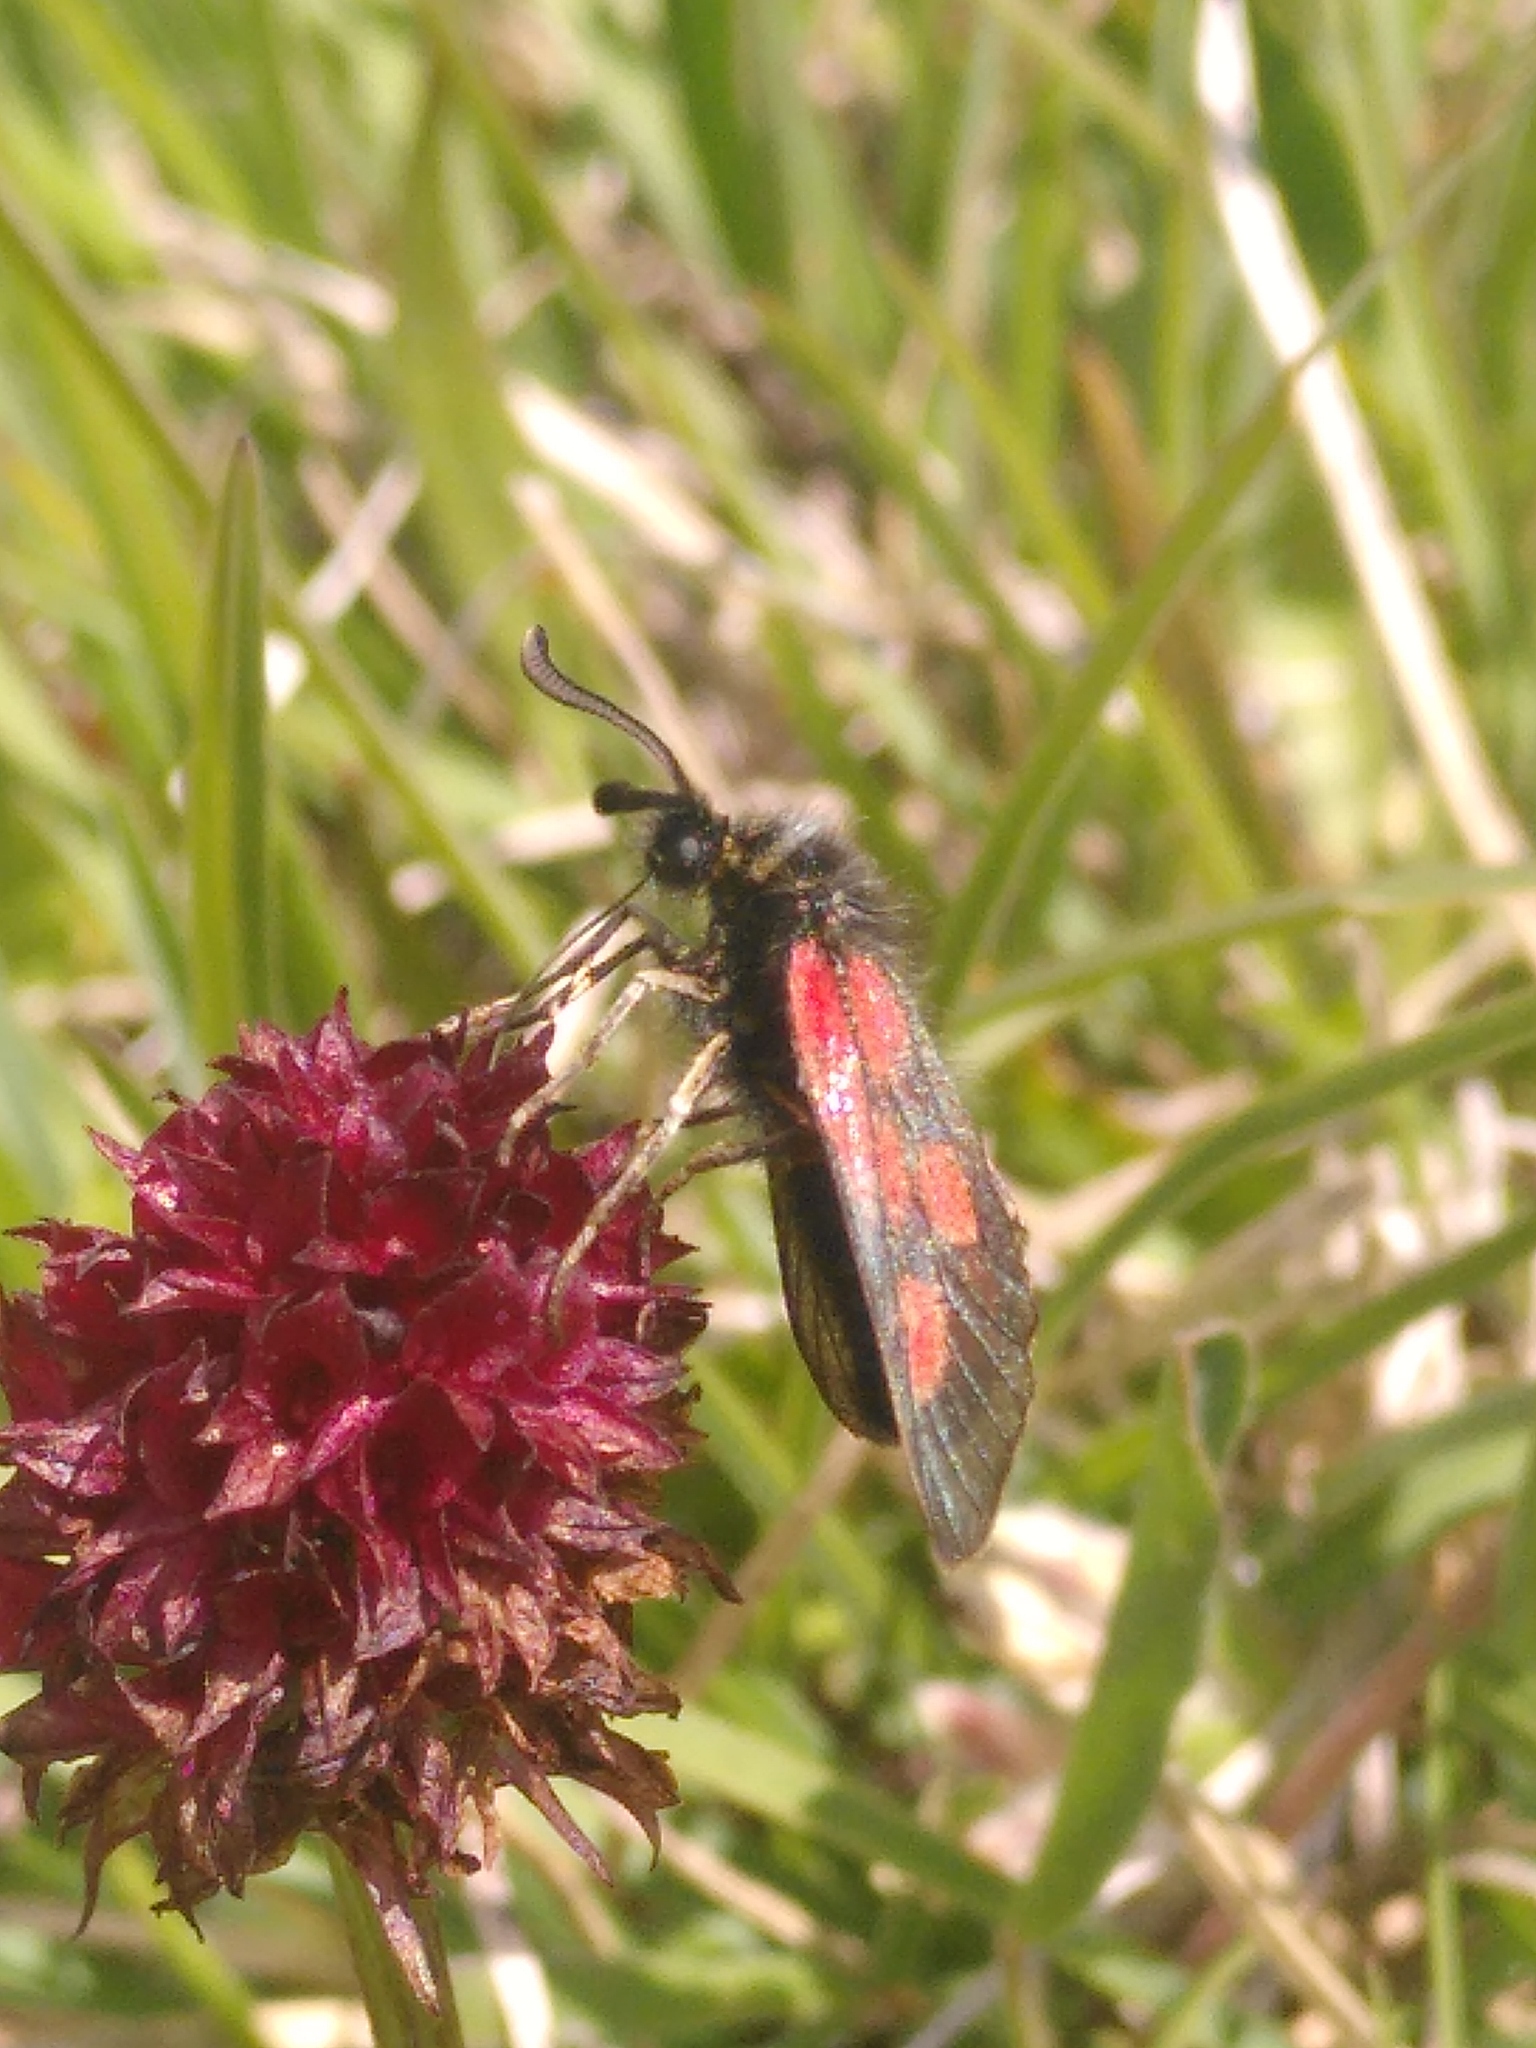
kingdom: Animalia
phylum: Arthropoda
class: Insecta
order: Lepidoptera
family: Zygaenidae
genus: Zygaena
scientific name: Zygaena exulans
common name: Scotch burnet
